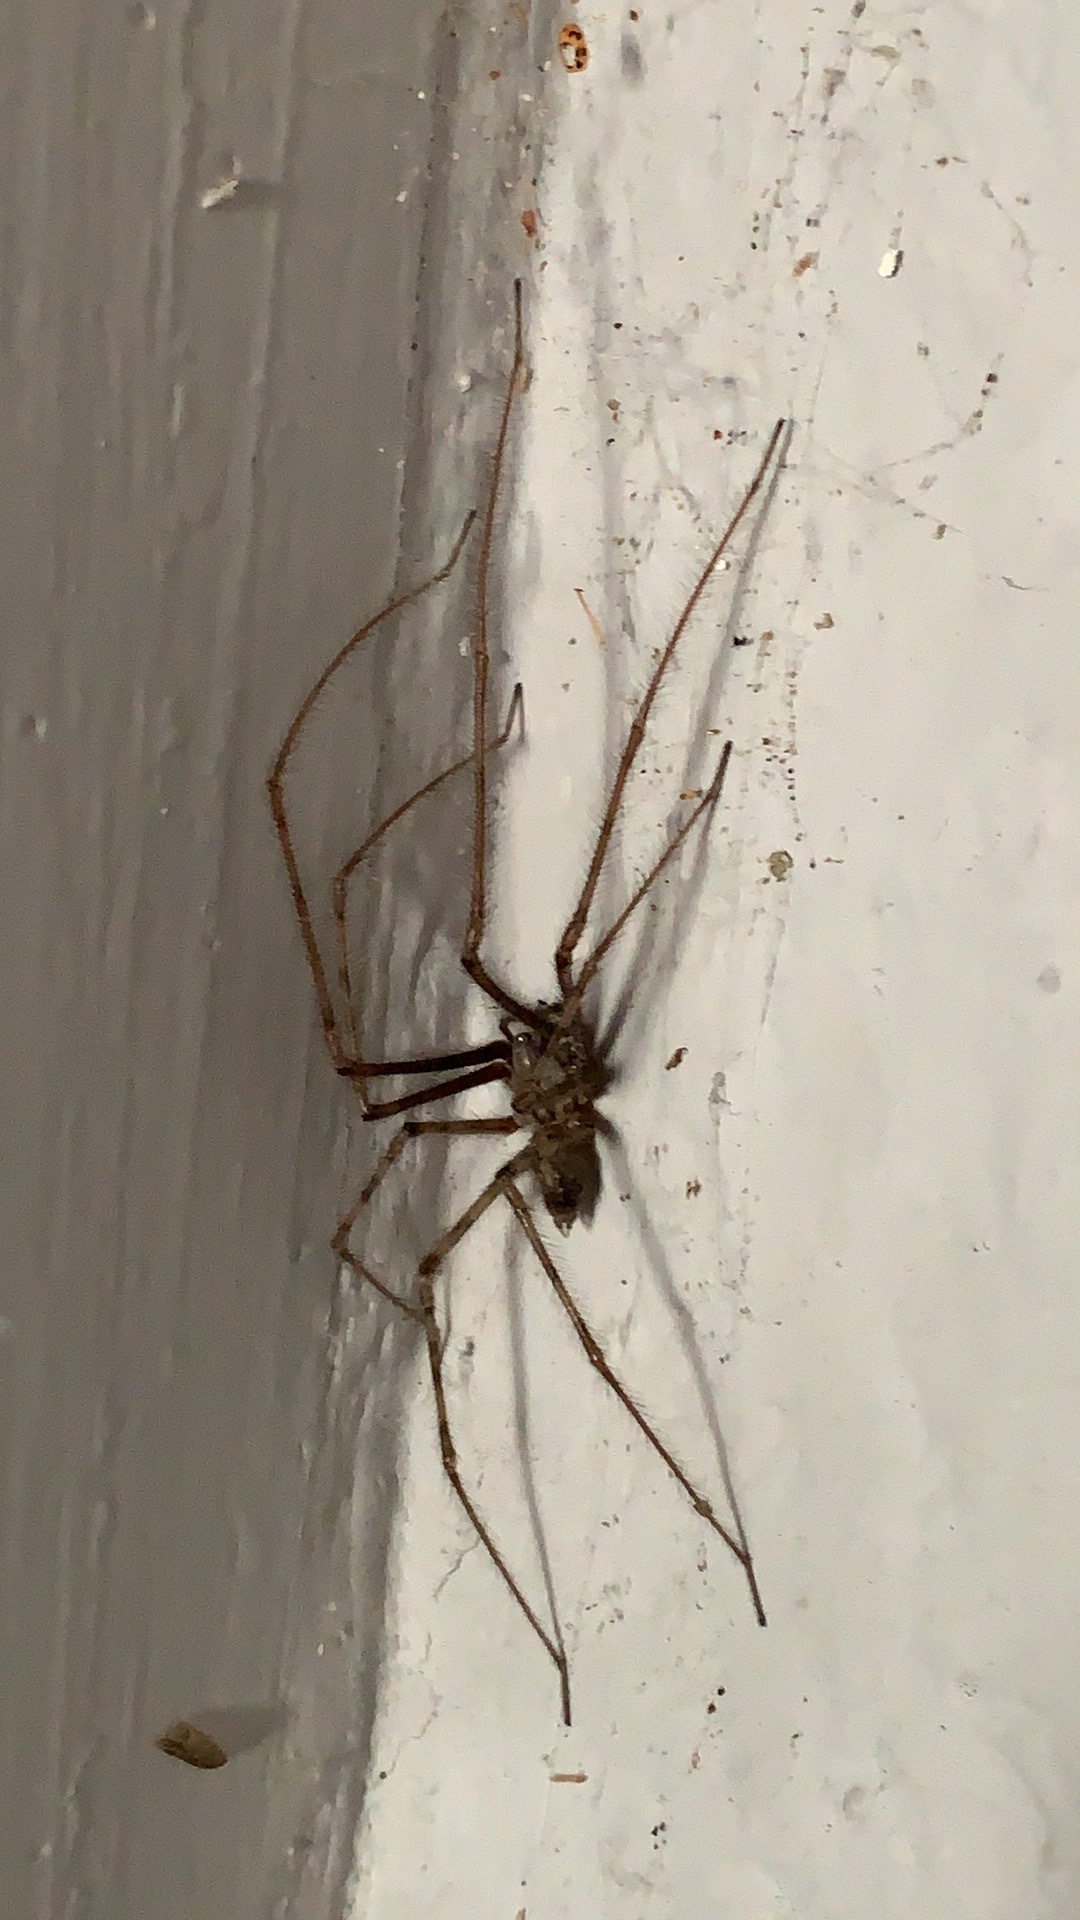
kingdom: Animalia
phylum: Arthropoda
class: Arachnida
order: Araneae
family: Agelenidae
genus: Tegenaria
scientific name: Tegenaria parietina
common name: Cardinal spider
